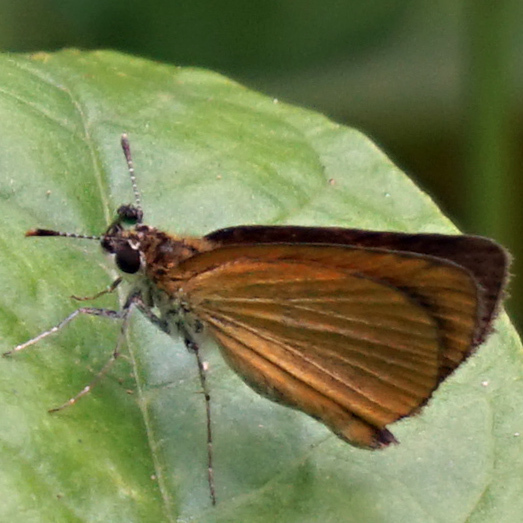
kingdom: Animalia
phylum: Arthropoda
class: Insecta
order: Lepidoptera
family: Hesperiidae
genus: Ancyloxypha
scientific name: Ancyloxypha numitor
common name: Least skipper
